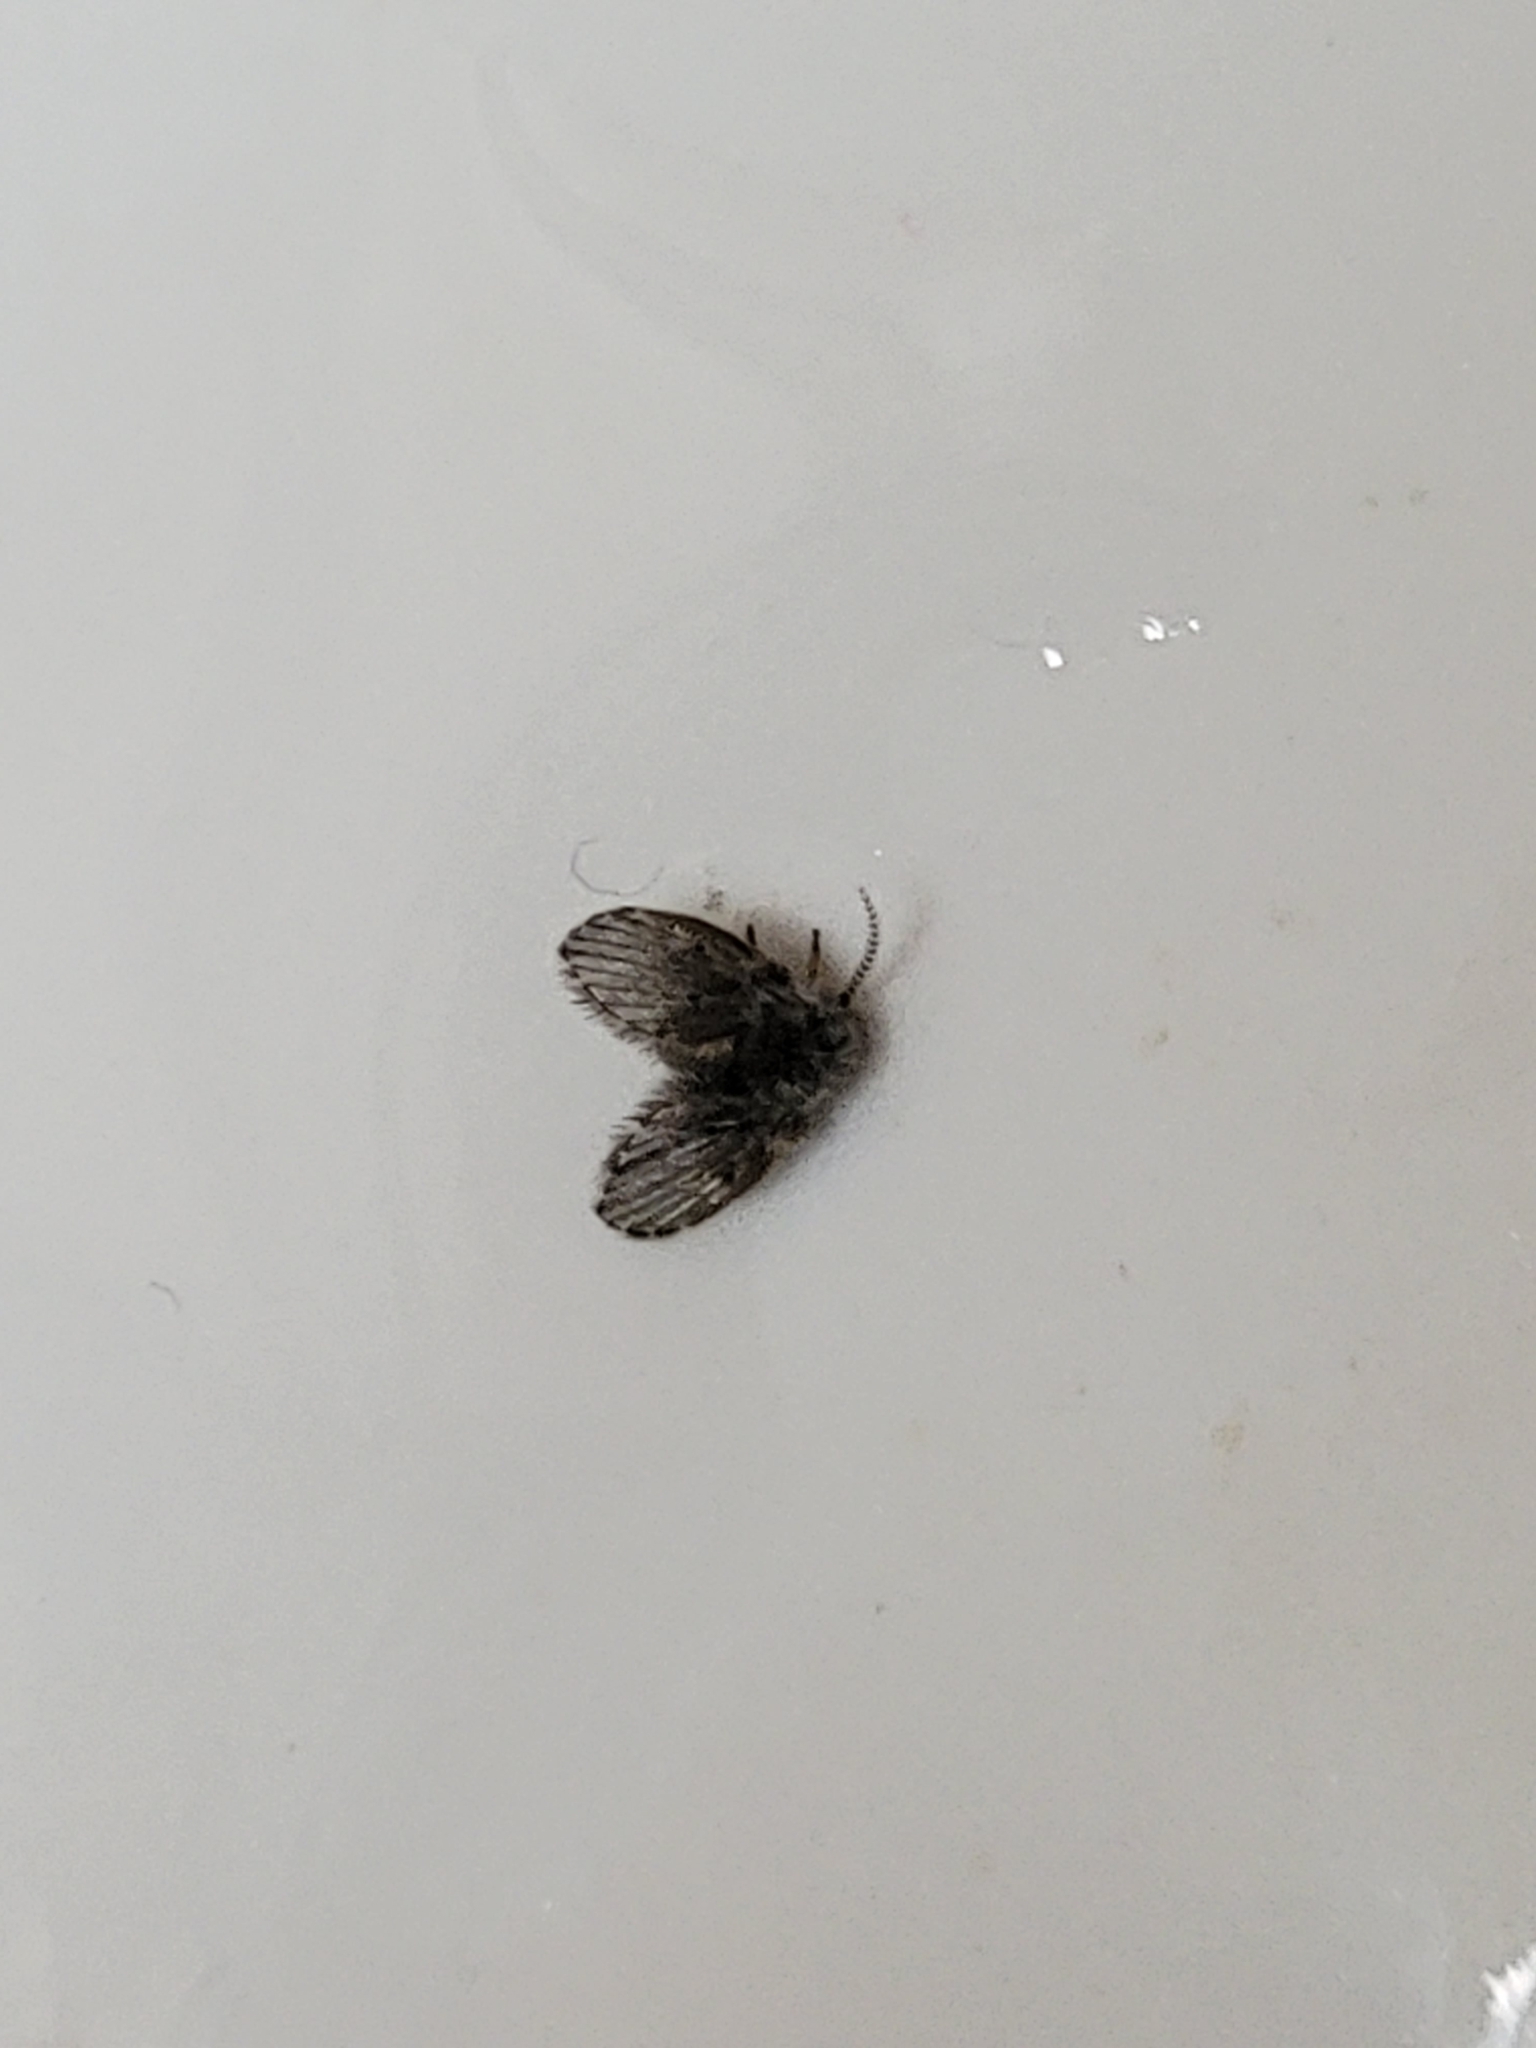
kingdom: Animalia
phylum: Arthropoda
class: Insecta
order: Diptera
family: Psychodidae
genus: Clogmia
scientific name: Clogmia albipunctatus
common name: White-spotted moth fly
